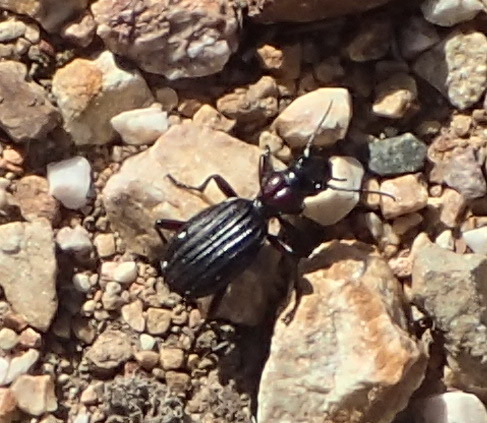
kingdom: Animalia
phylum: Arthropoda
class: Insecta
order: Coleoptera
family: Carabidae
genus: Anthia
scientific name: Anthia decemguttata
